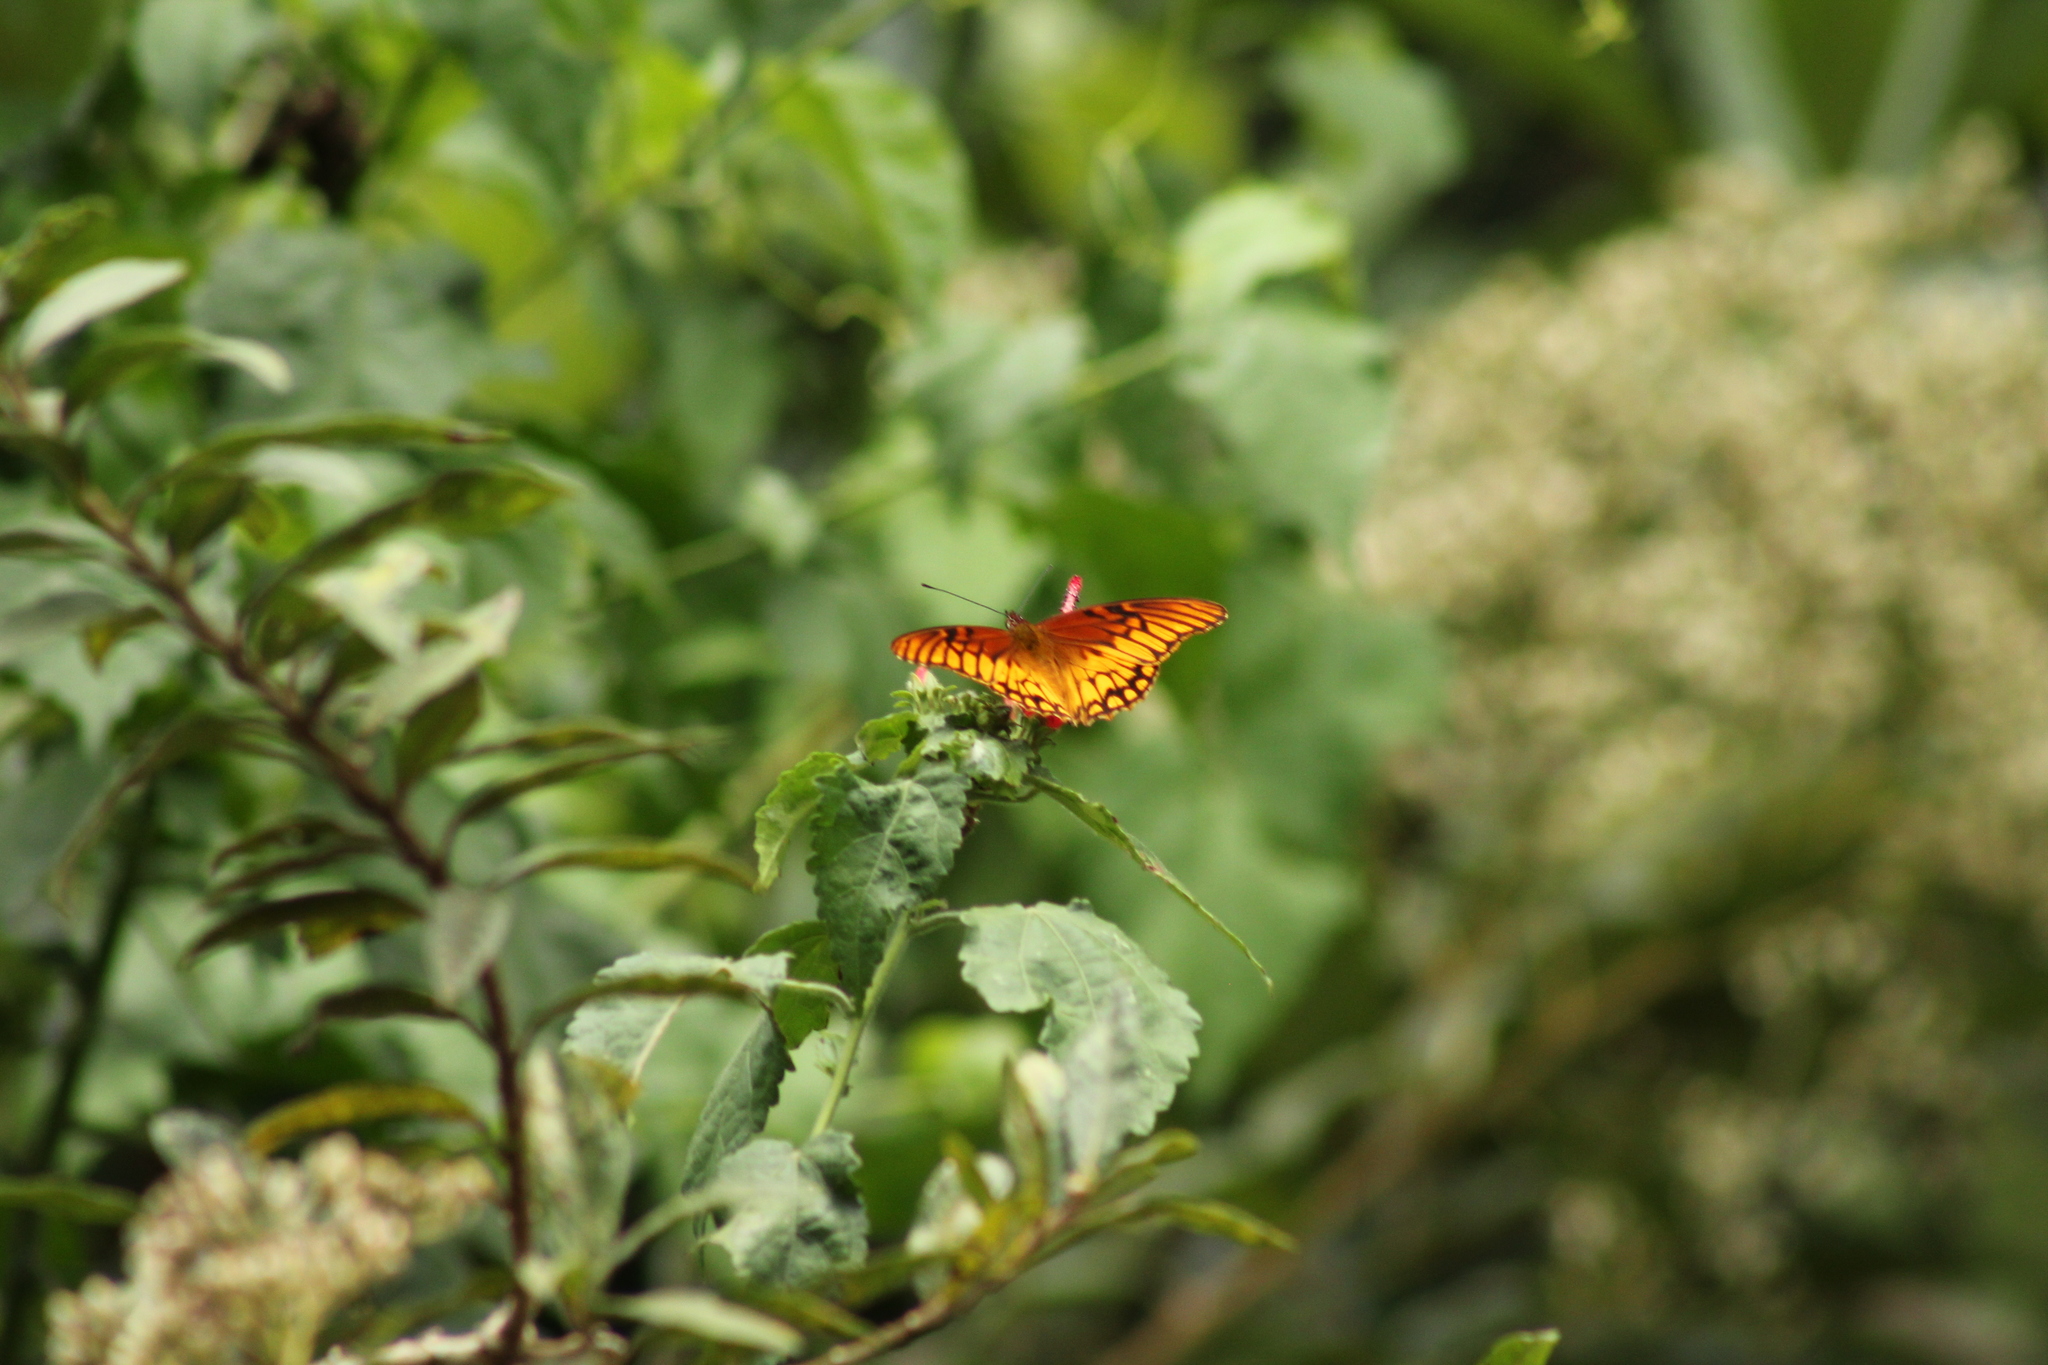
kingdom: Animalia
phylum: Arthropoda
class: Insecta
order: Lepidoptera
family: Nymphalidae
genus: Dione
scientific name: Dione moneta
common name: Mexican silverspot
